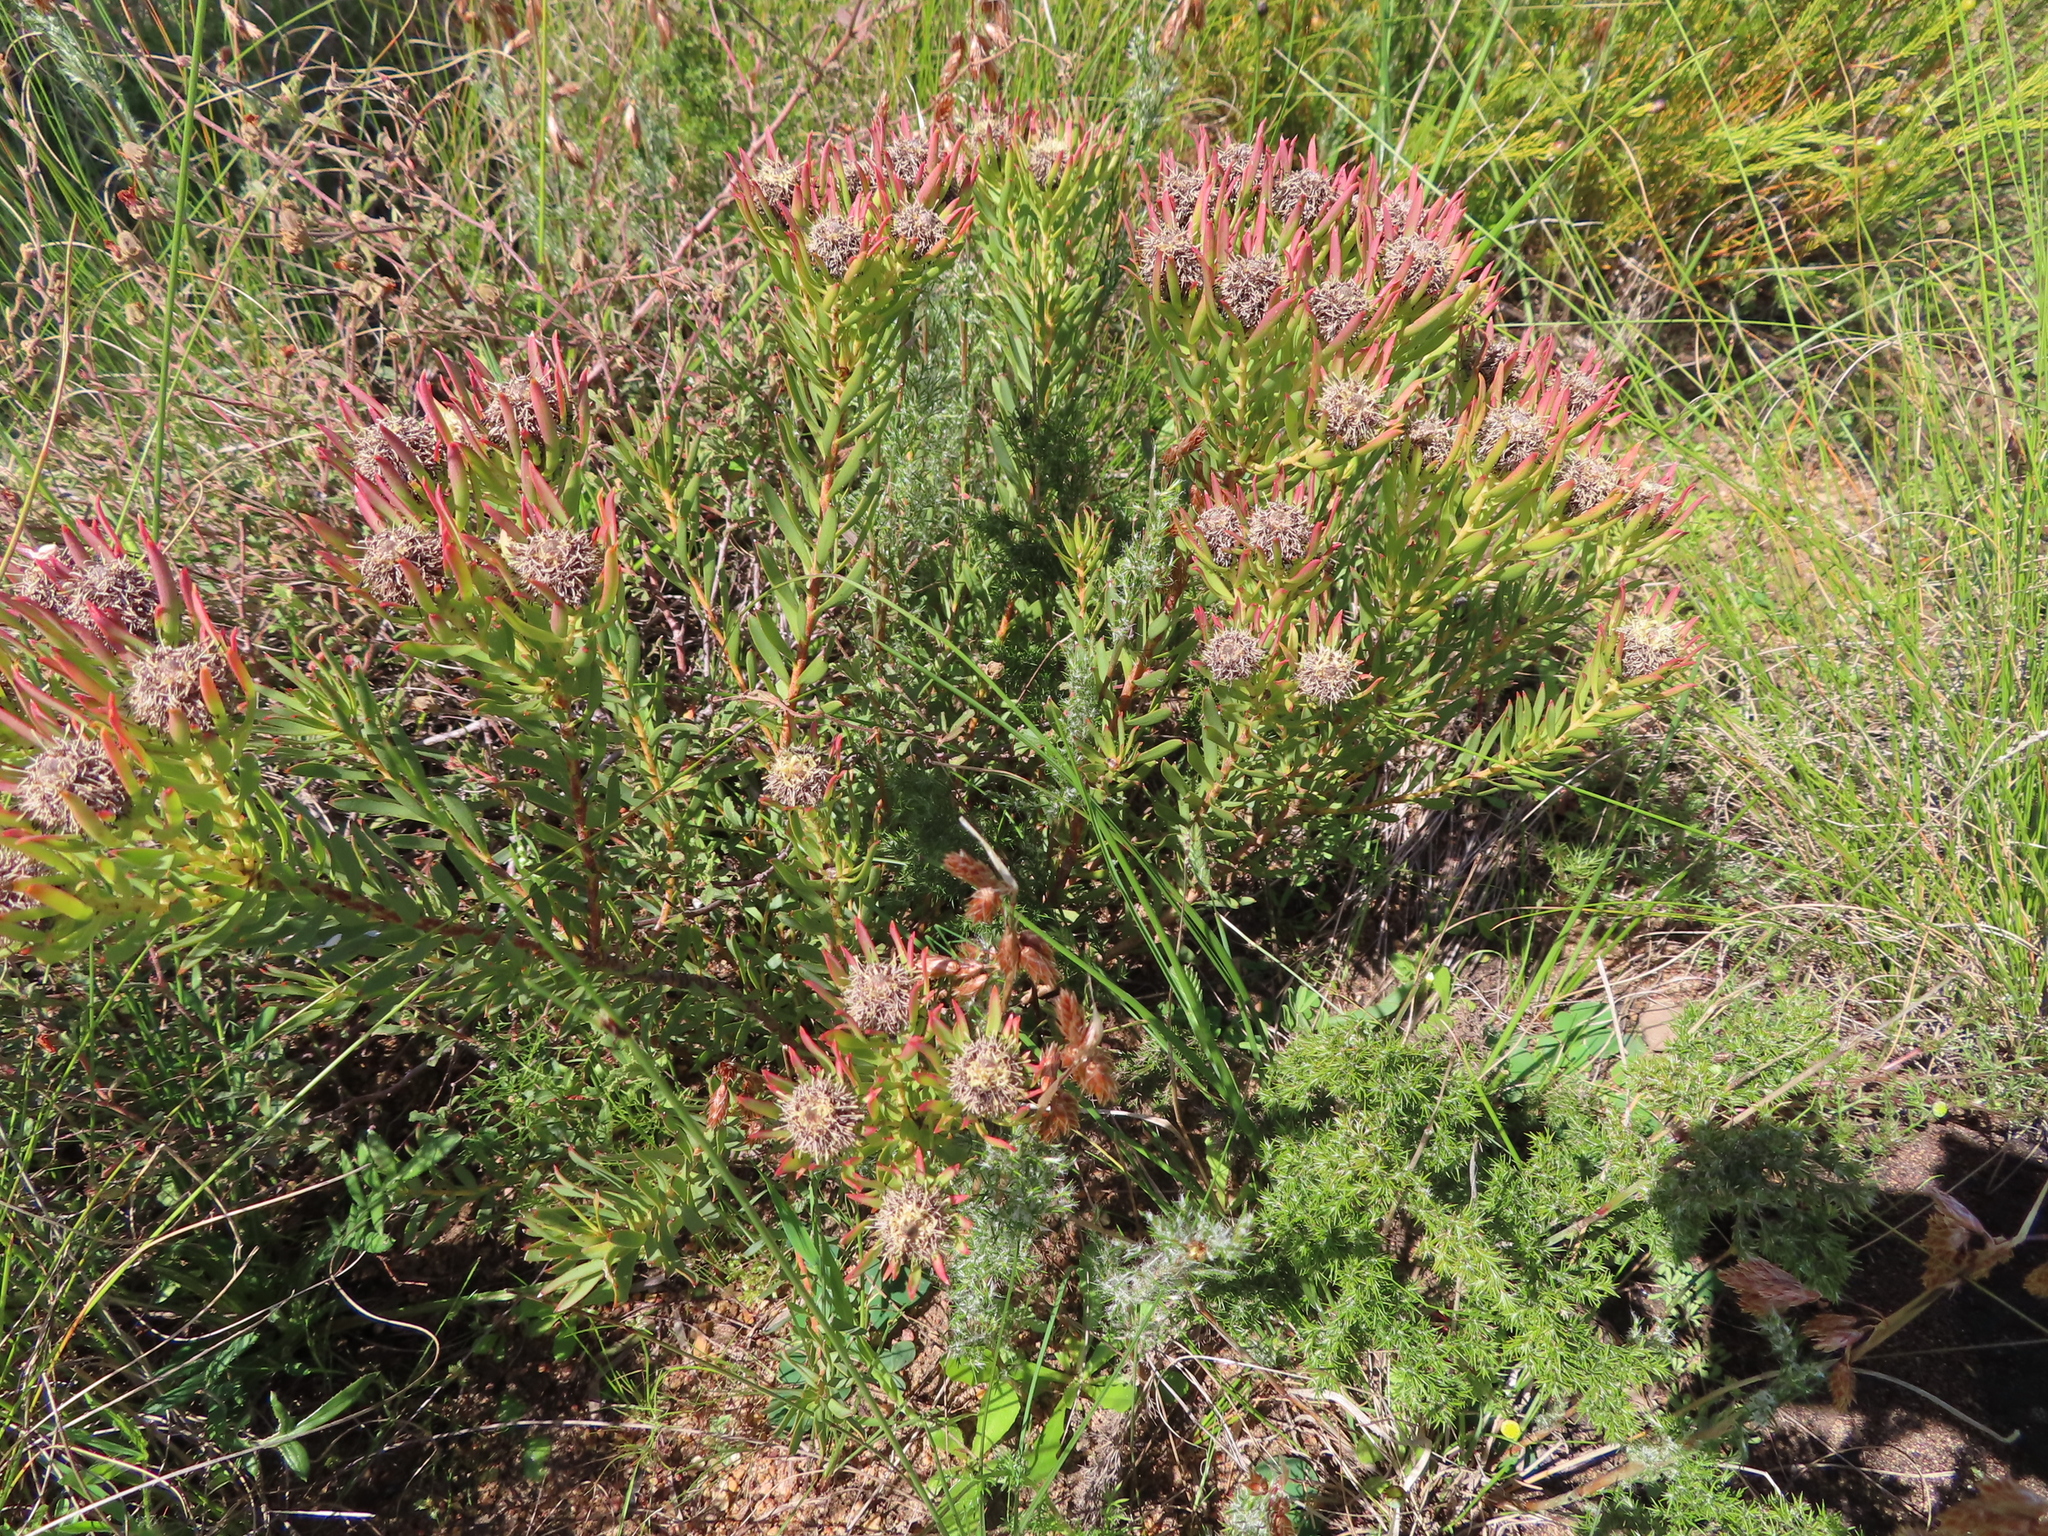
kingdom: Plantae
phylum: Tracheophyta
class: Magnoliopsida
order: Proteales
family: Proteaceae
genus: Leucadendron
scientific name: Leucadendron lanigerum
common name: Shale conebush
